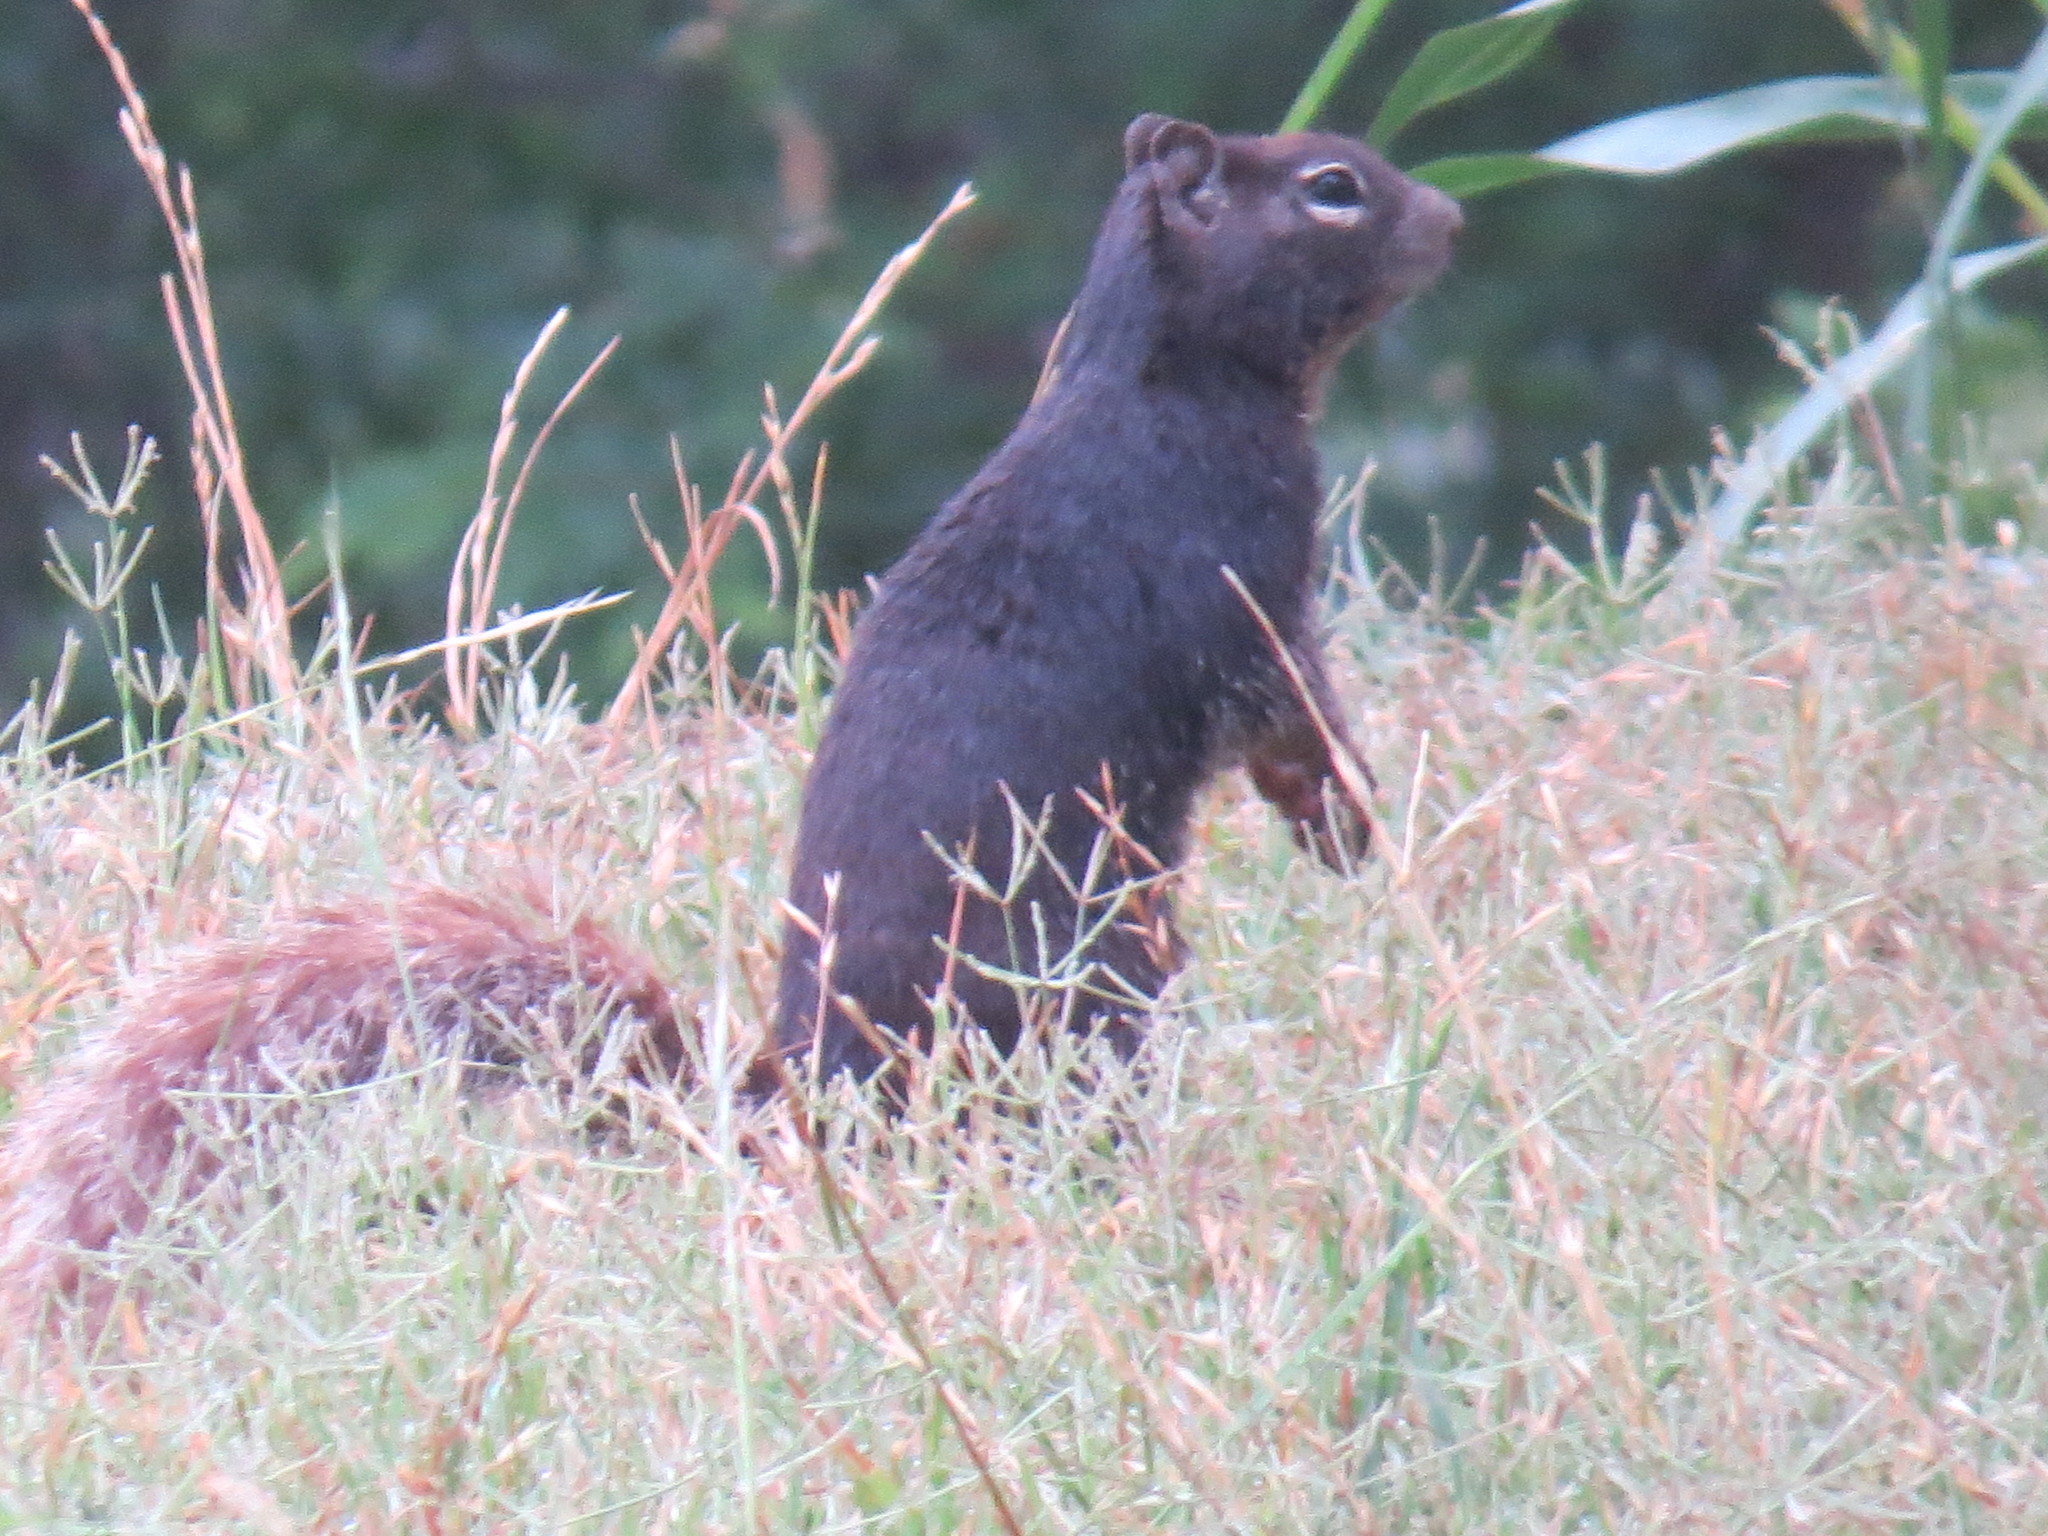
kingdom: Animalia
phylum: Chordata
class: Mammalia
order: Rodentia
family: Sciuridae
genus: Otospermophilus
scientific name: Otospermophilus variegatus
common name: Rock squirrel
